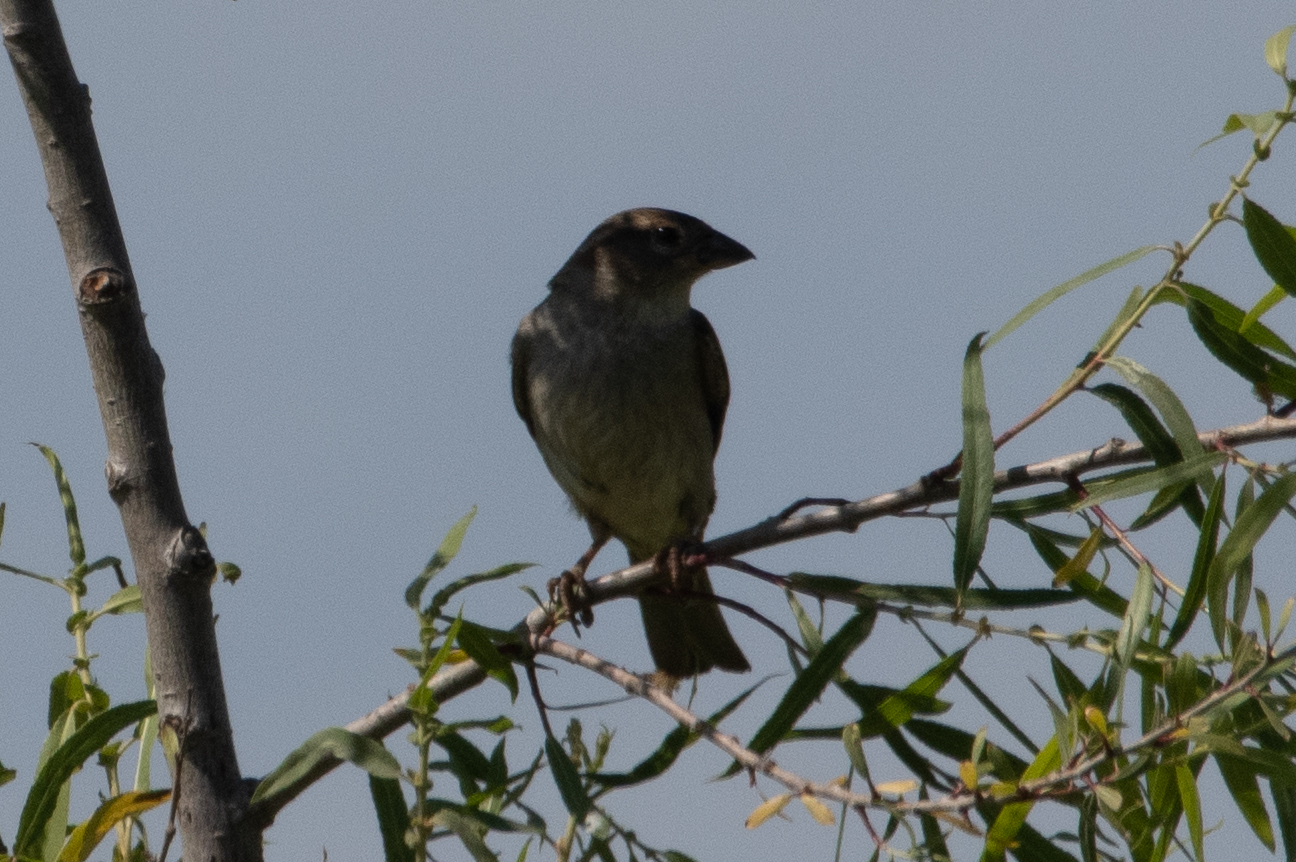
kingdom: Animalia
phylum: Chordata
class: Aves
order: Passeriformes
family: Passeridae
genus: Passer
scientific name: Passer domesticus
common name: House sparrow
